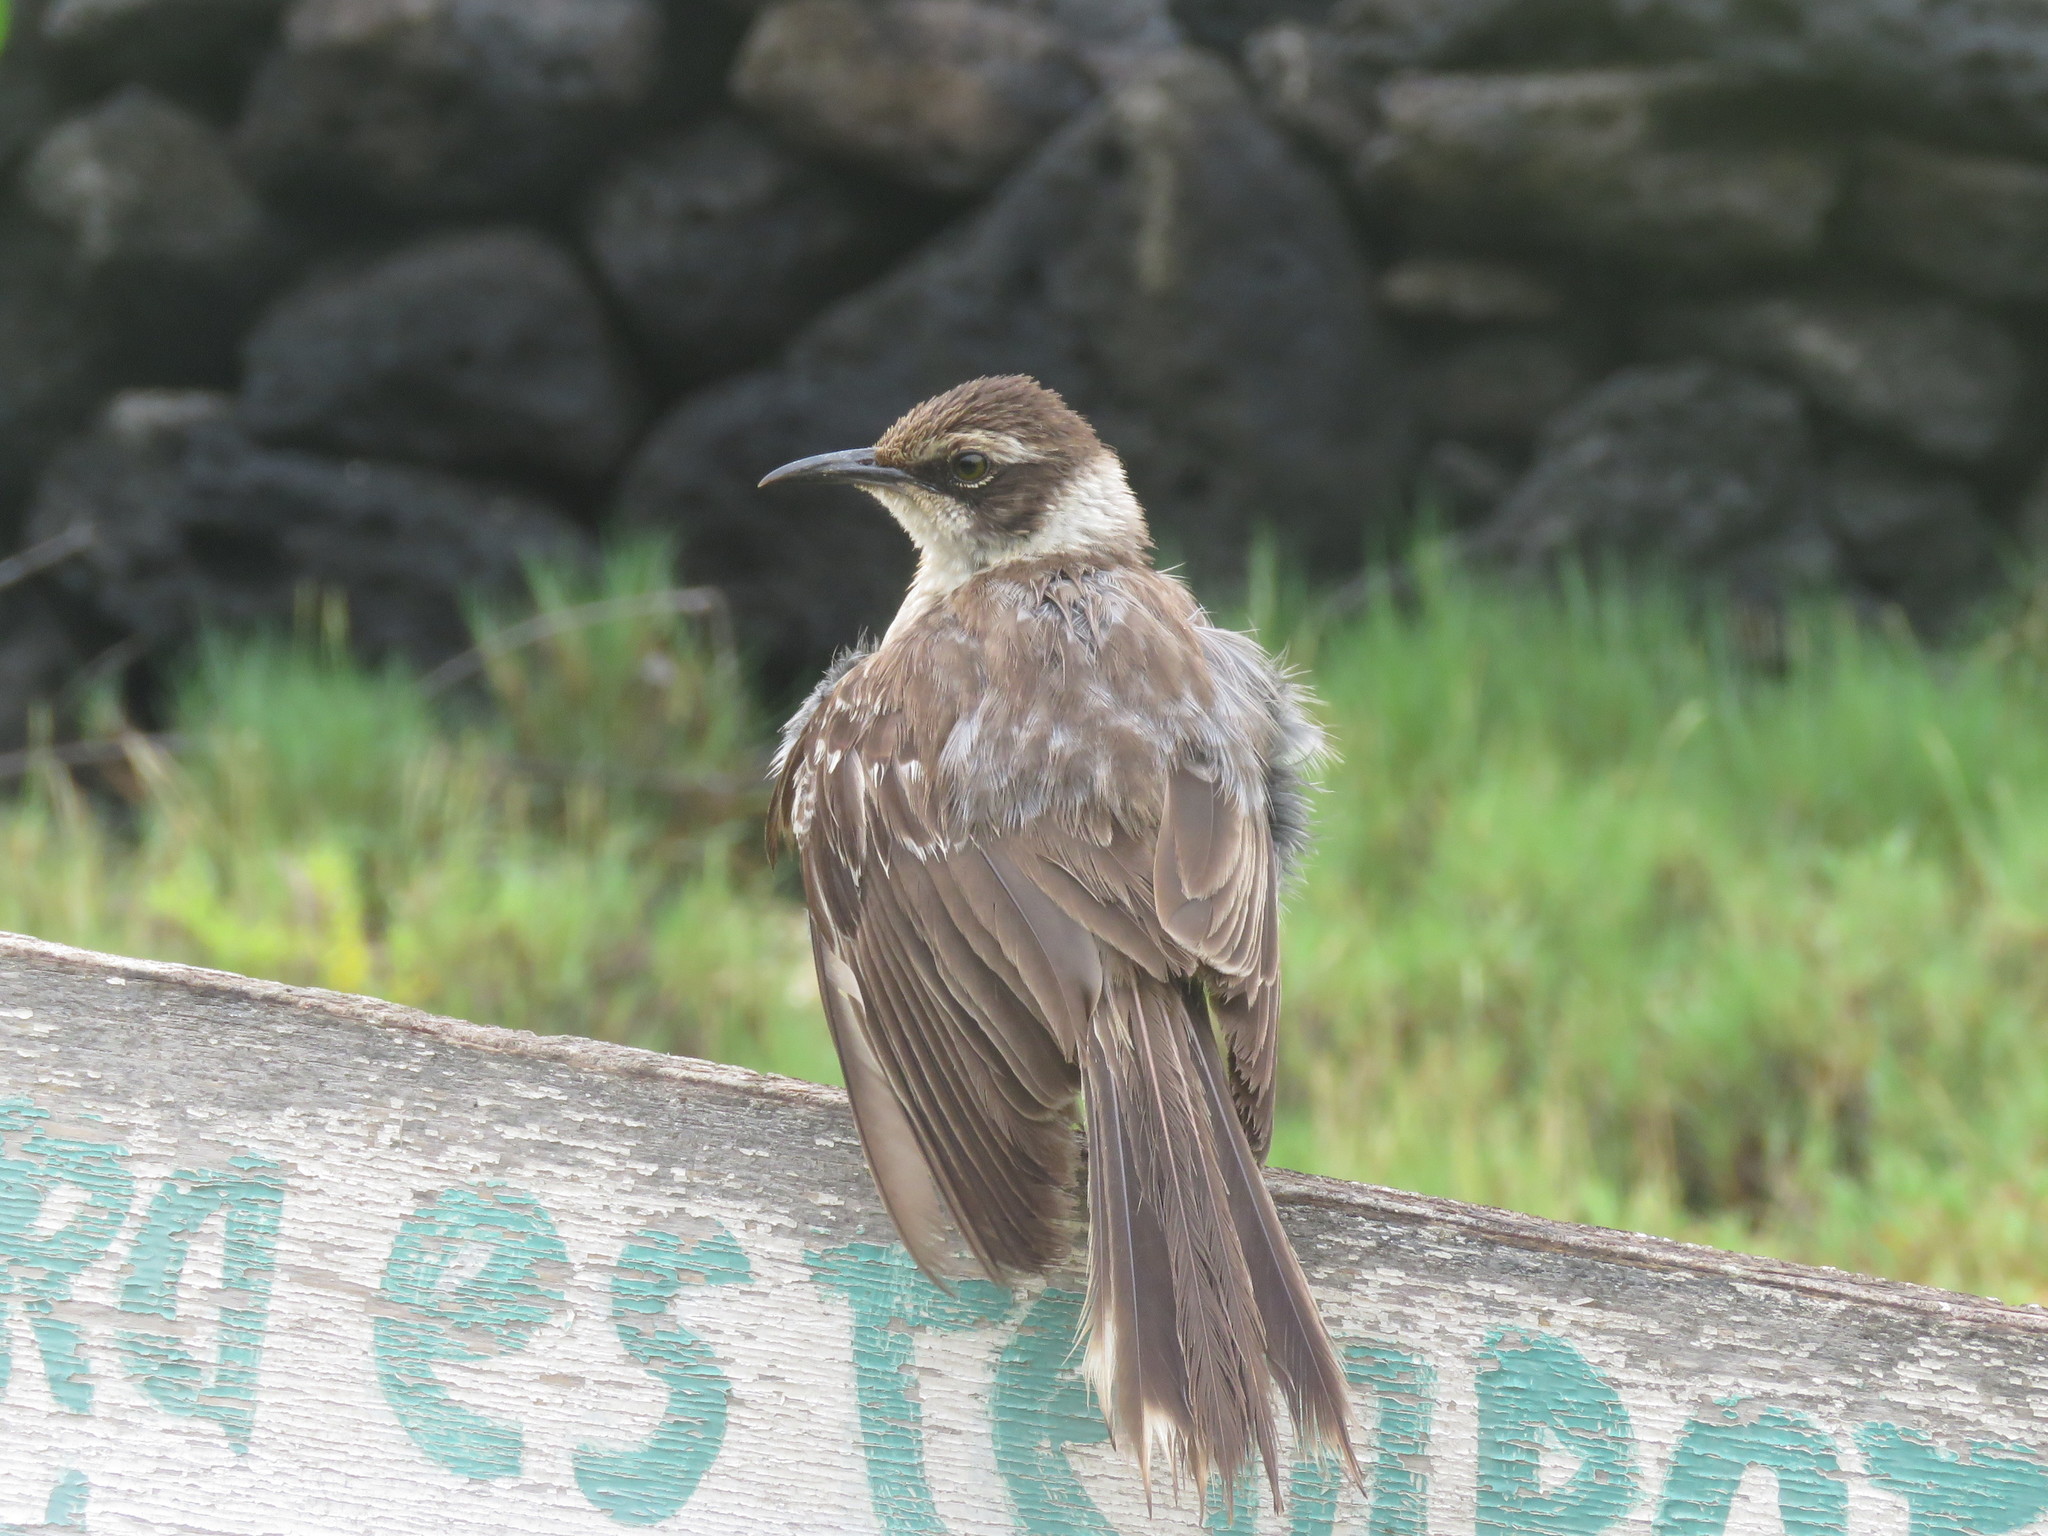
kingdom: Animalia
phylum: Chordata
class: Aves
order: Passeriformes
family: Mimidae
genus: Mimus
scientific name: Mimus parvulus
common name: Galapagos mockingbird
